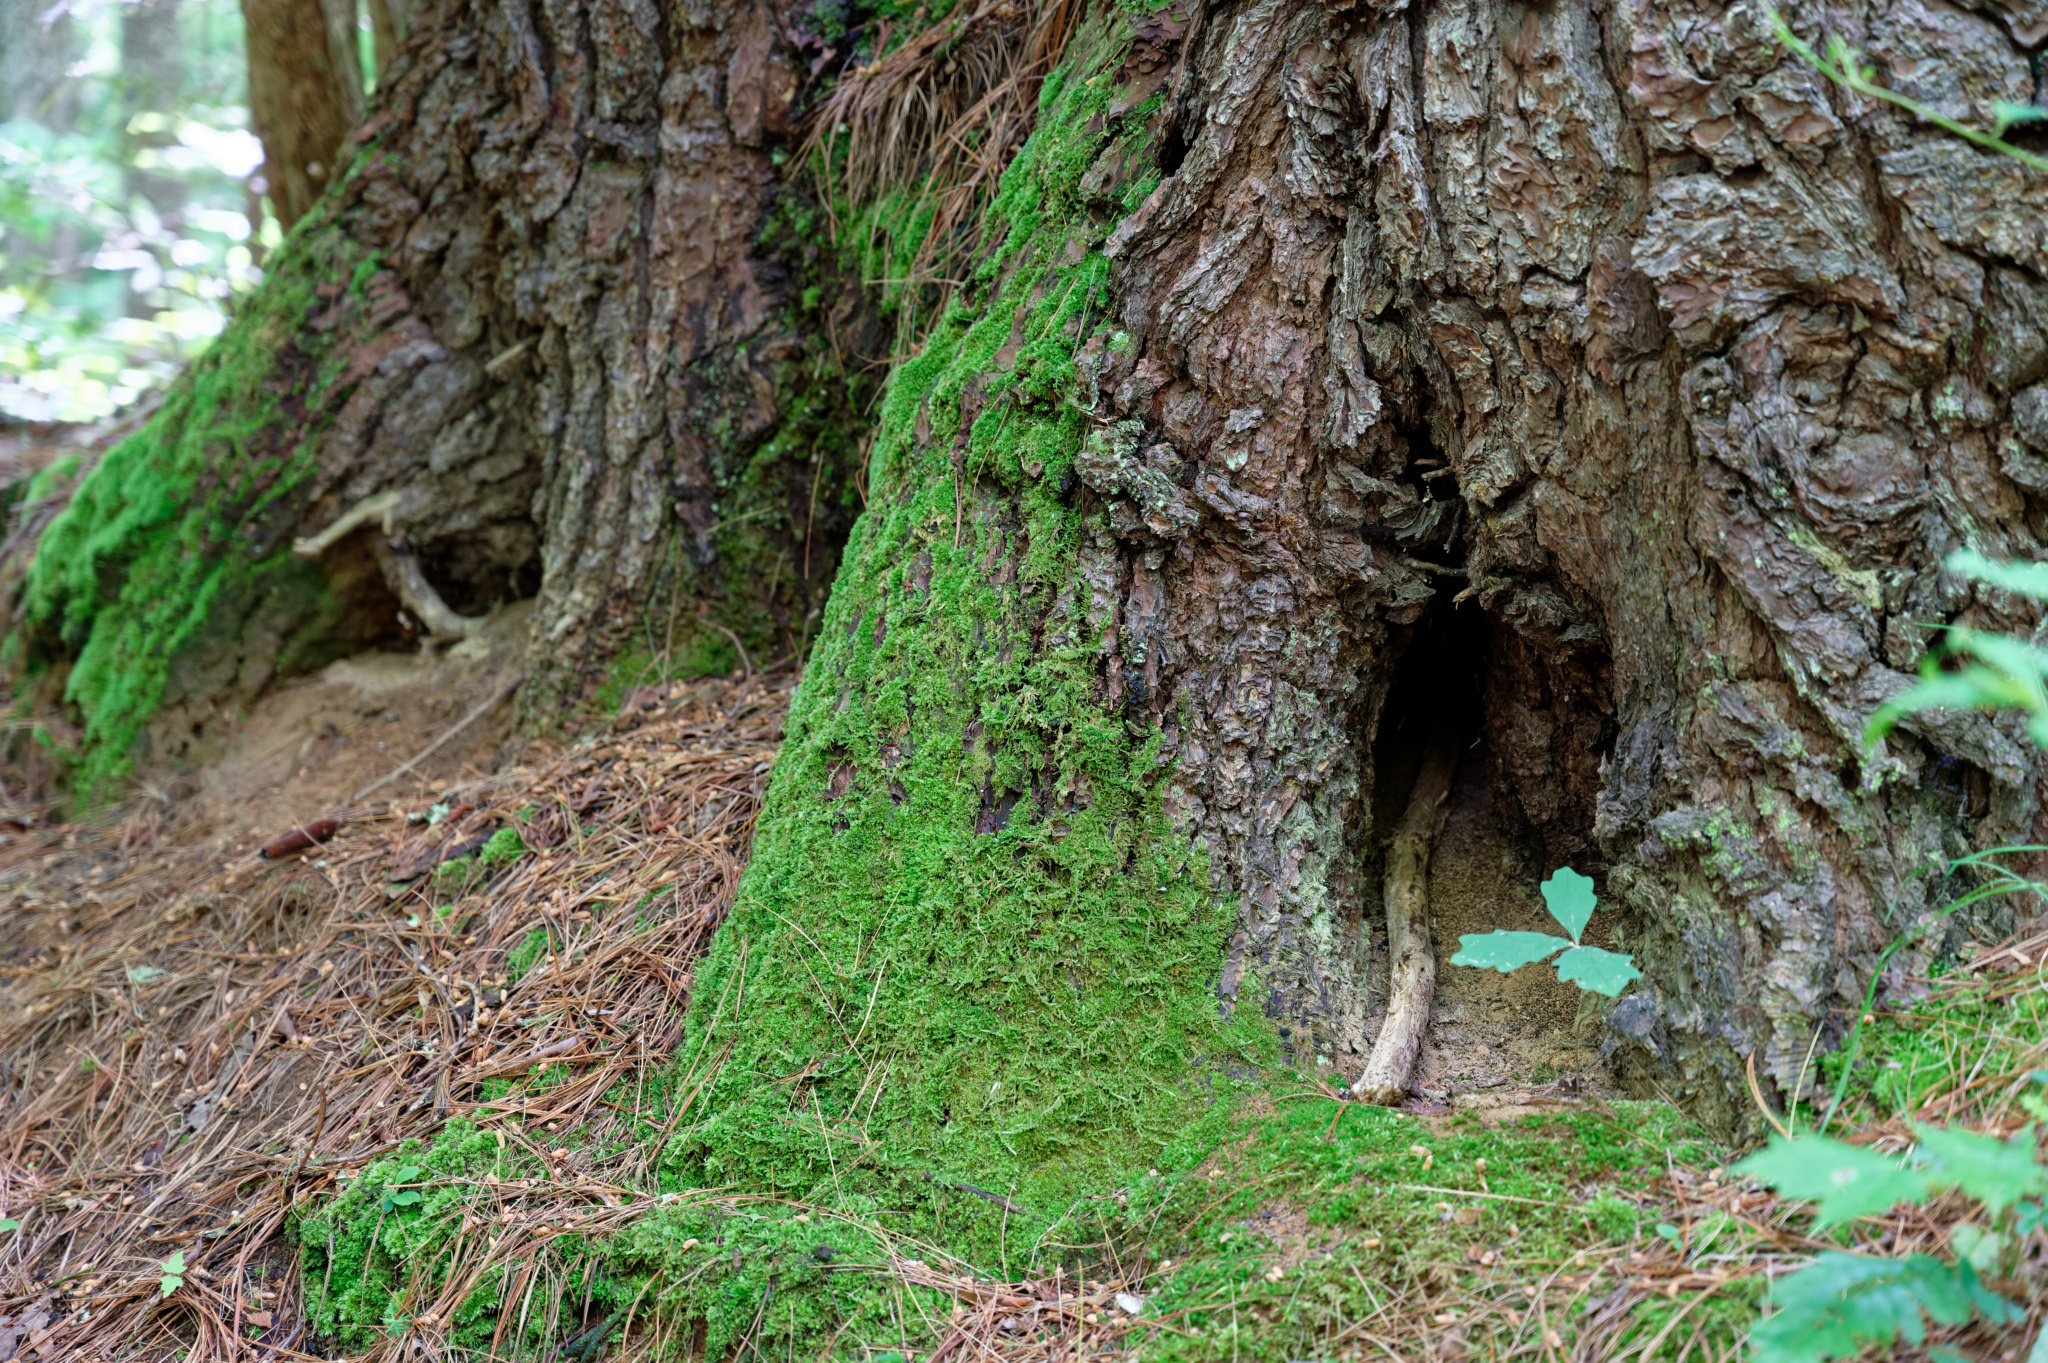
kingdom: Plantae
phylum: Bryophyta
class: Bryopsida
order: Hypnales
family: Callicladiaceae
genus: Callicladium
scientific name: Callicladium imponens
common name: Brocade moss
